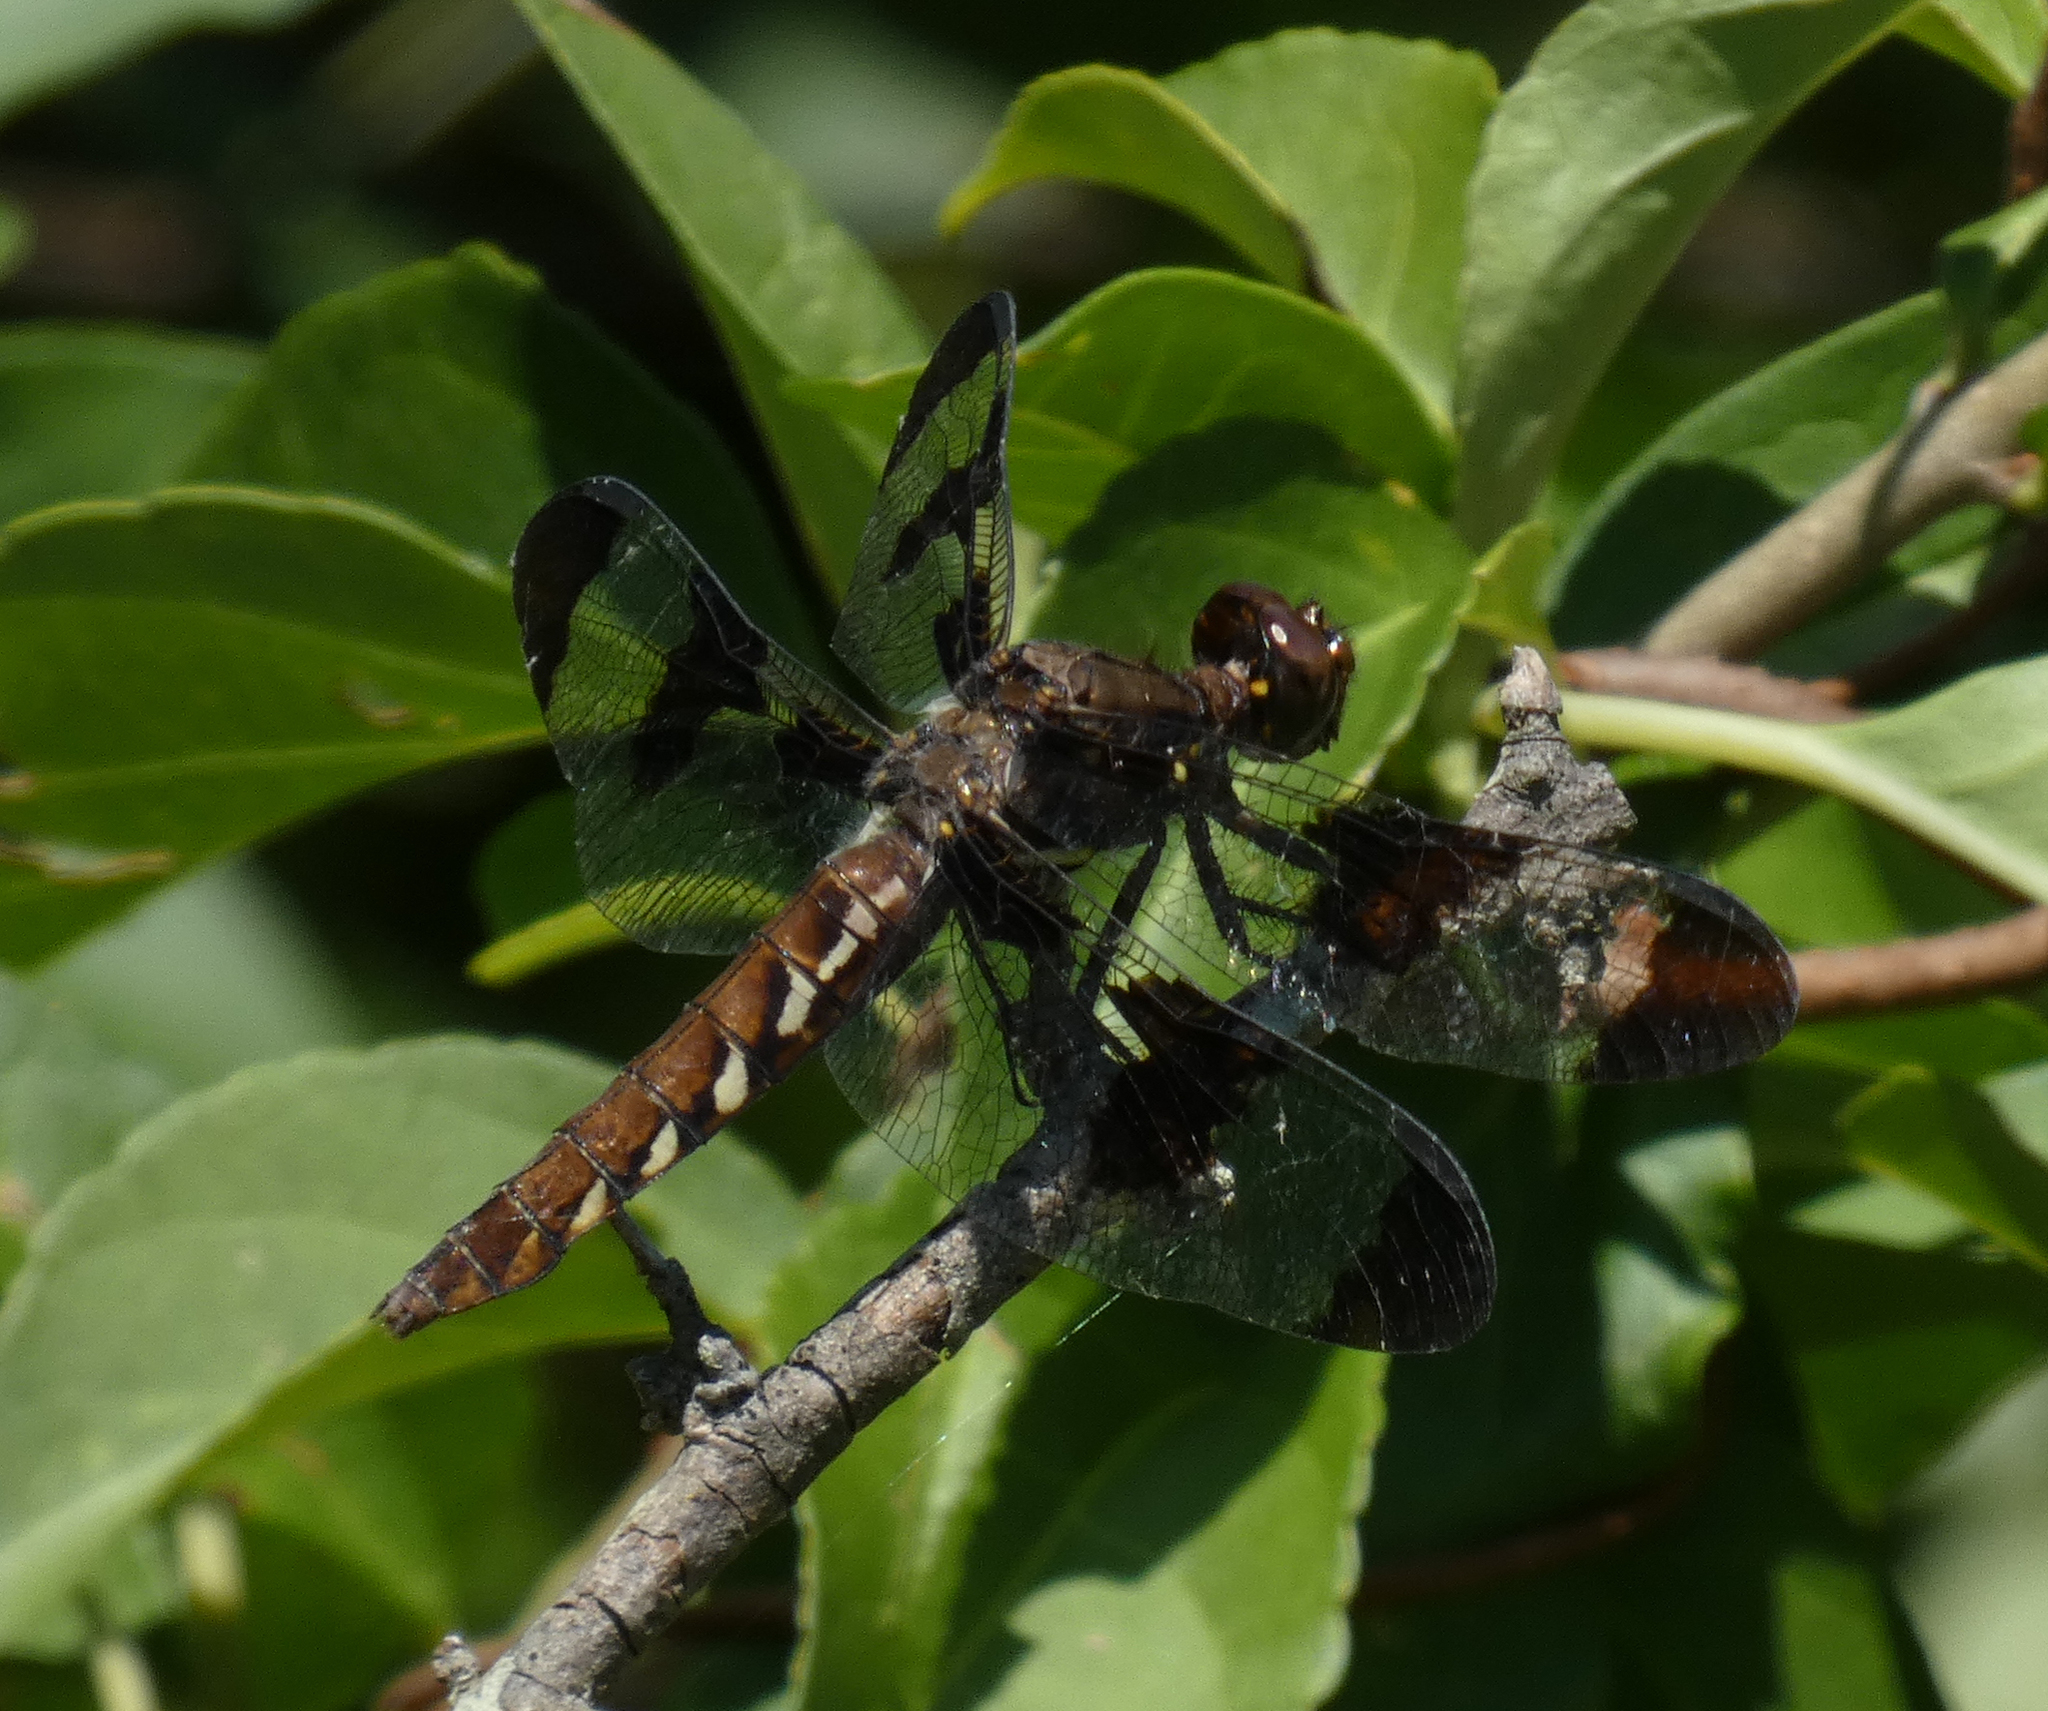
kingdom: Animalia
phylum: Arthropoda
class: Insecta
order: Odonata
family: Libellulidae
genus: Plathemis
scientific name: Plathemis lydia
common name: Common whitetail
